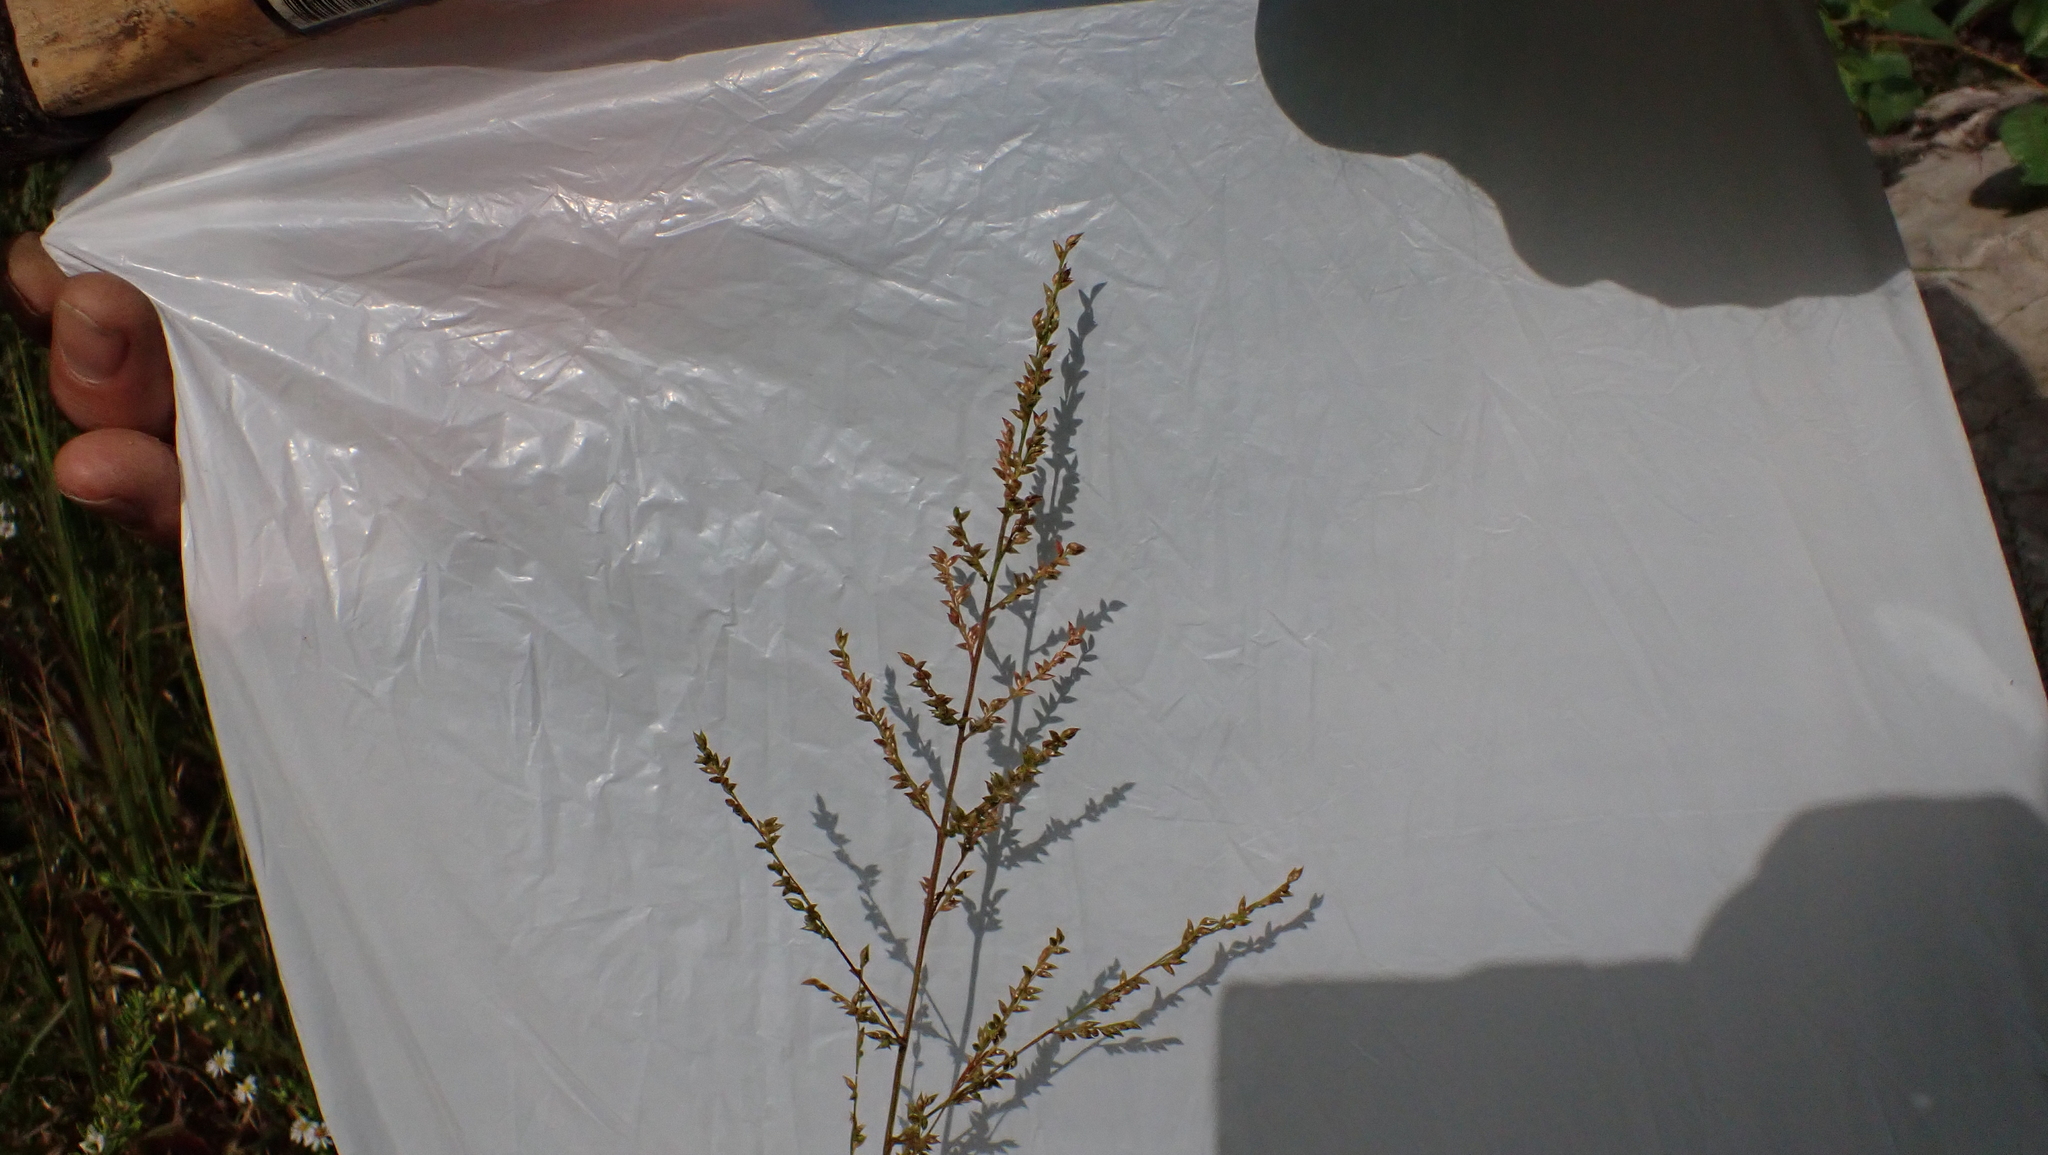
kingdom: Plantae
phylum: Tracheophyta
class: Liliopsida
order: Poales
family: Poaceae
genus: Coleataenia
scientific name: Coleataenia anceps
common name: Beaked panic grass
